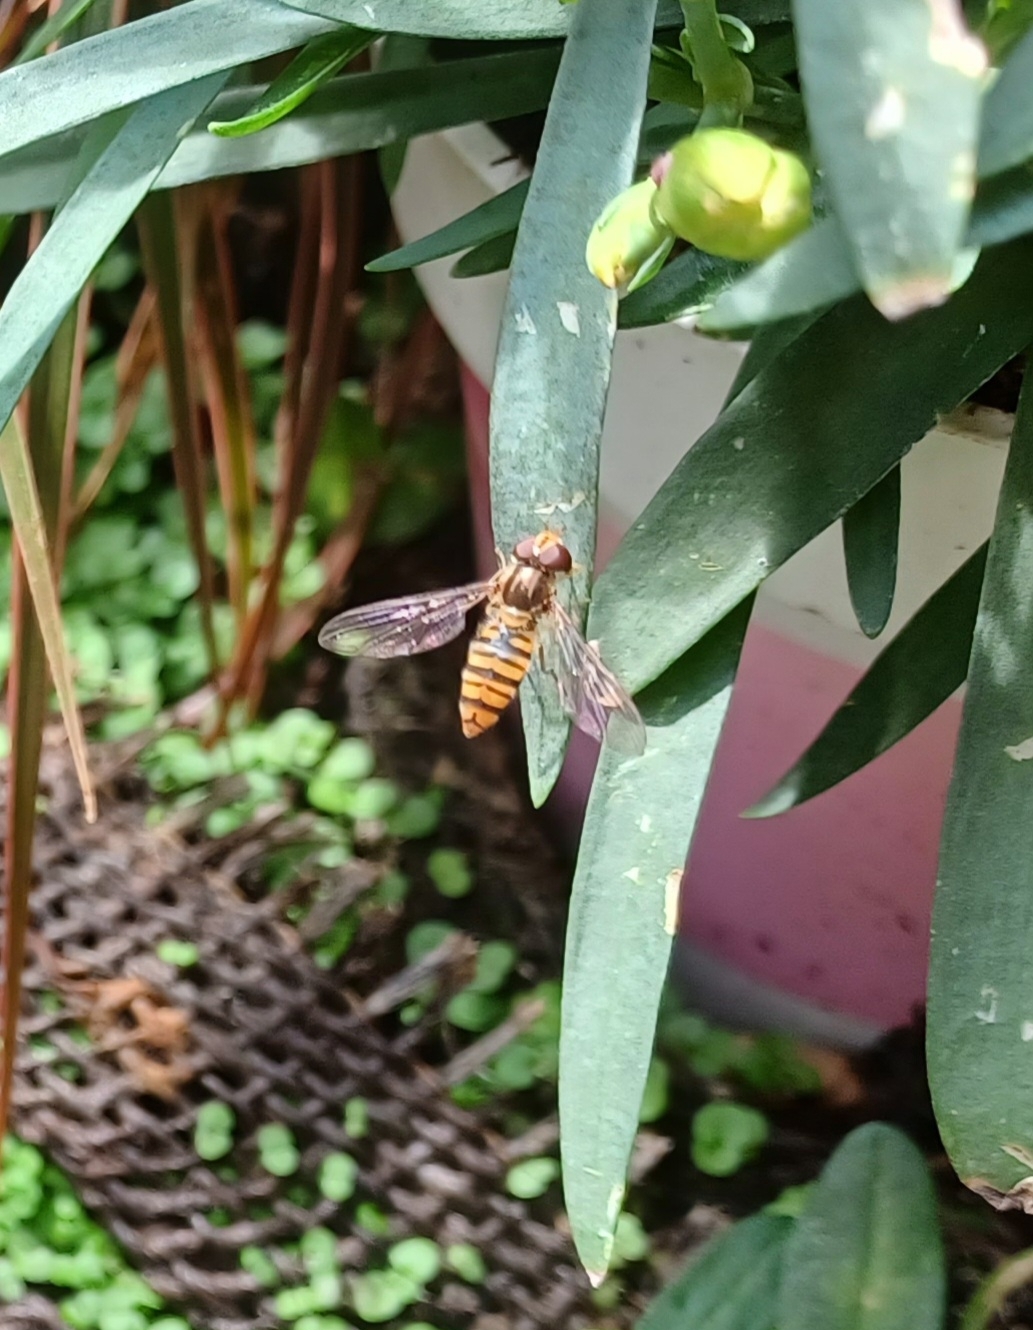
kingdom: Animalia
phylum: Arthropoda
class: Insecta
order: Diptera
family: Syrphidae
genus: Episyrphus
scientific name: Episyrphus balteatus
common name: Marmalade hoverfly
